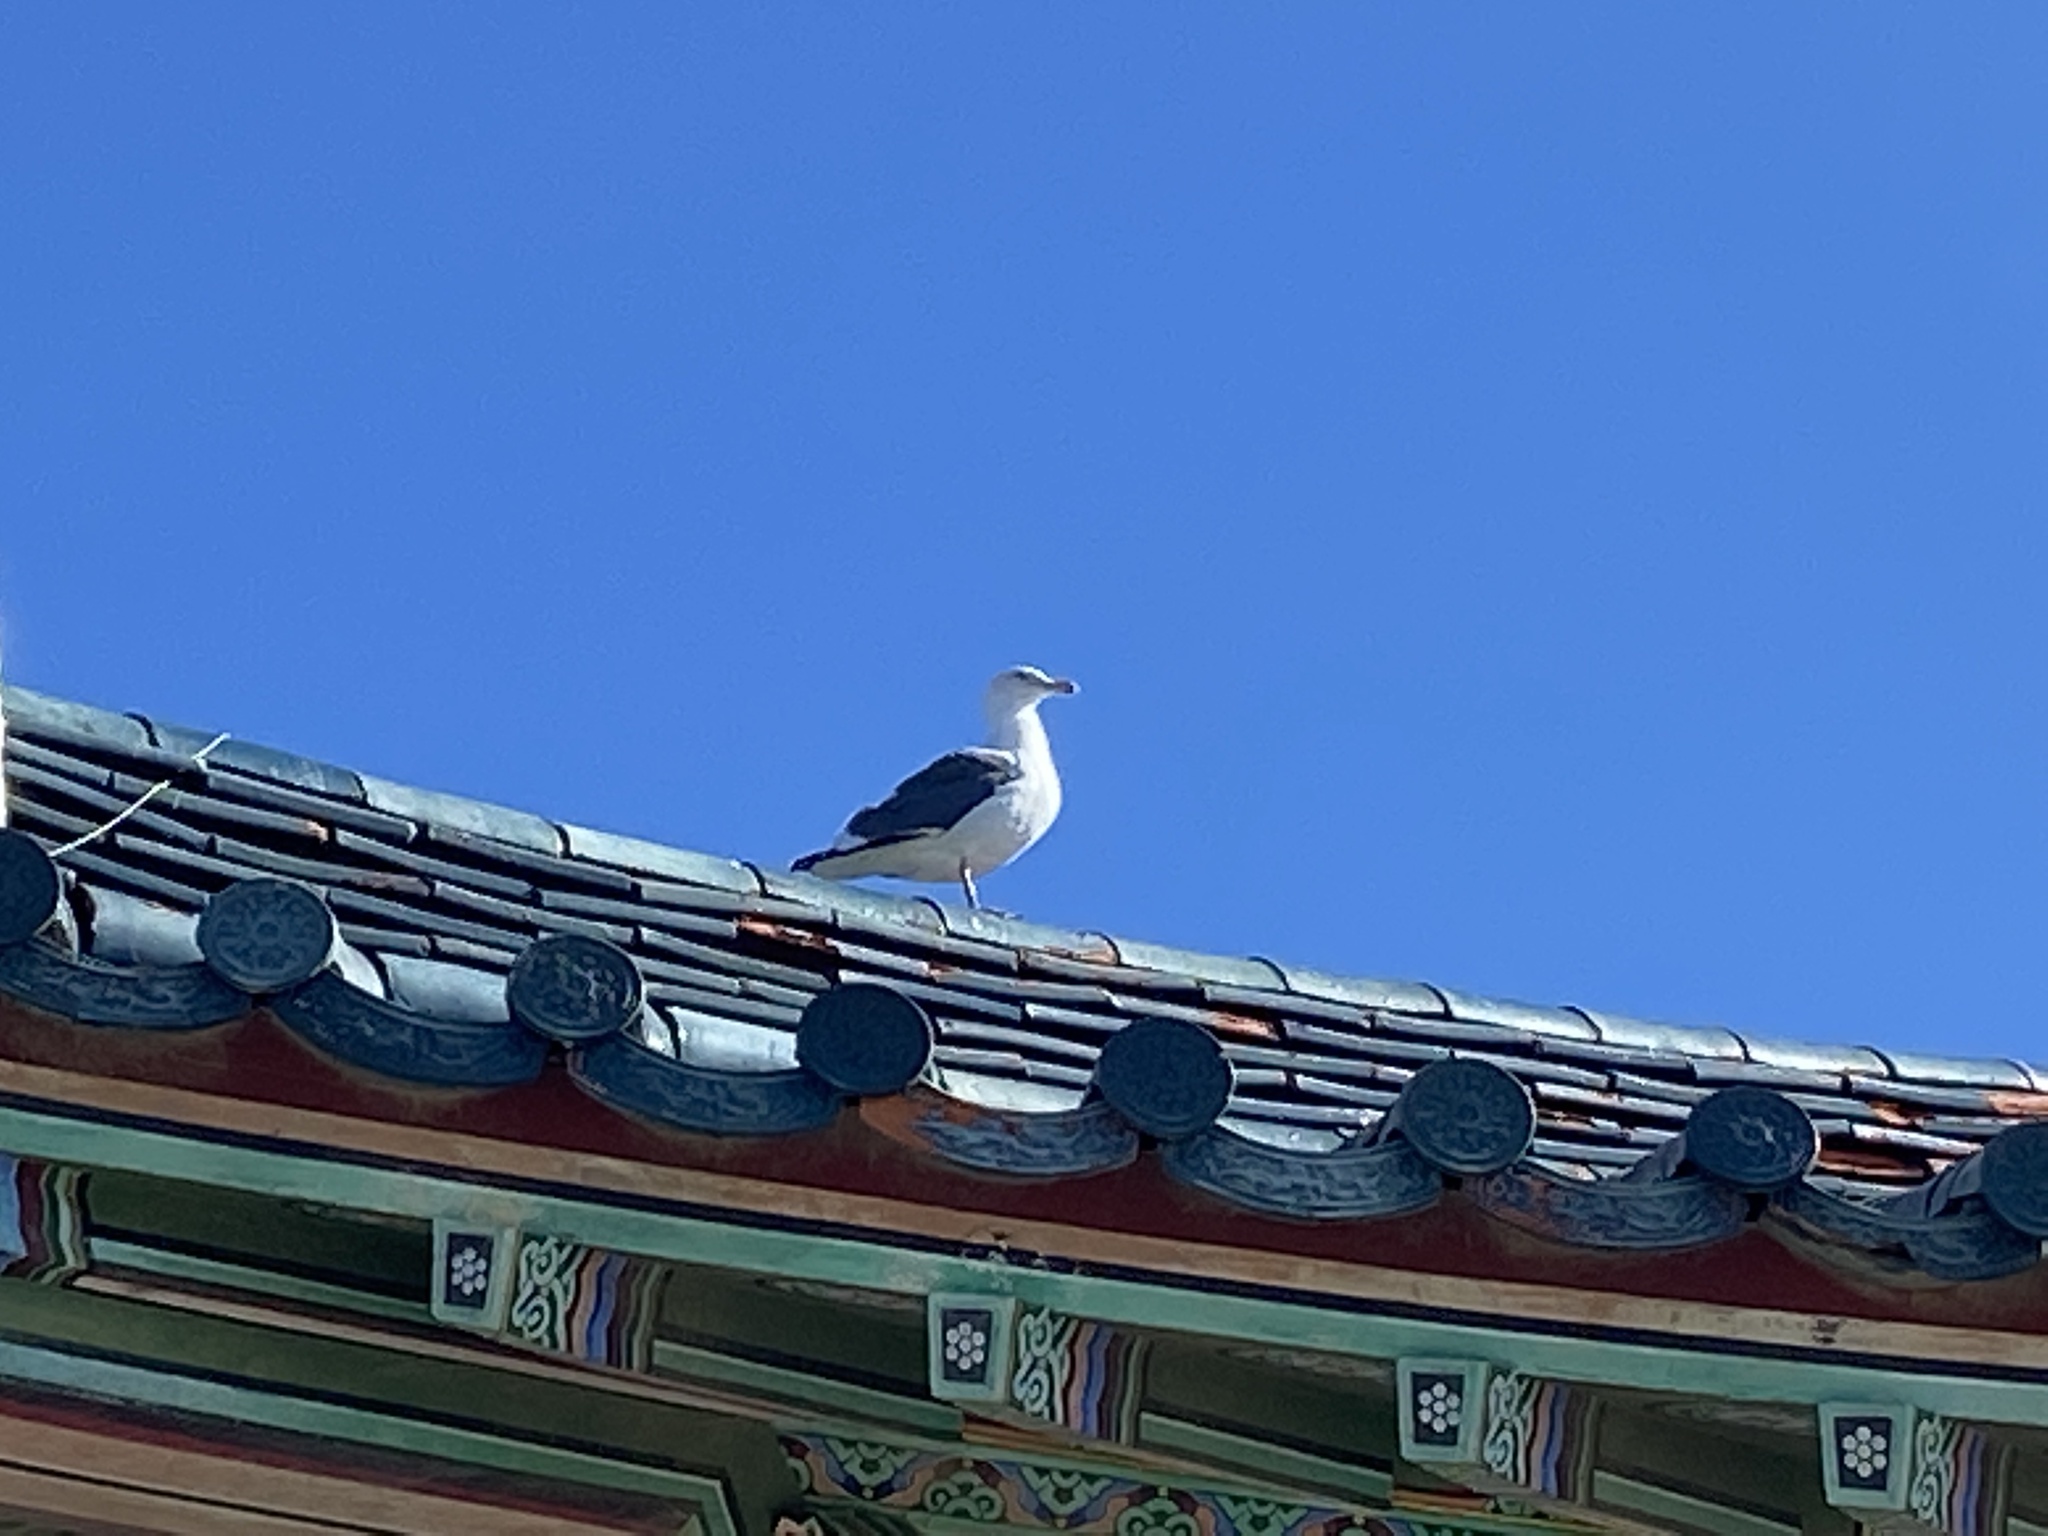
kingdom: Animalia
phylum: Chordata
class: Aves
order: Charadriiformes
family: Laridae
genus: Larus
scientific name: Larus occidentalis
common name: Western gull
